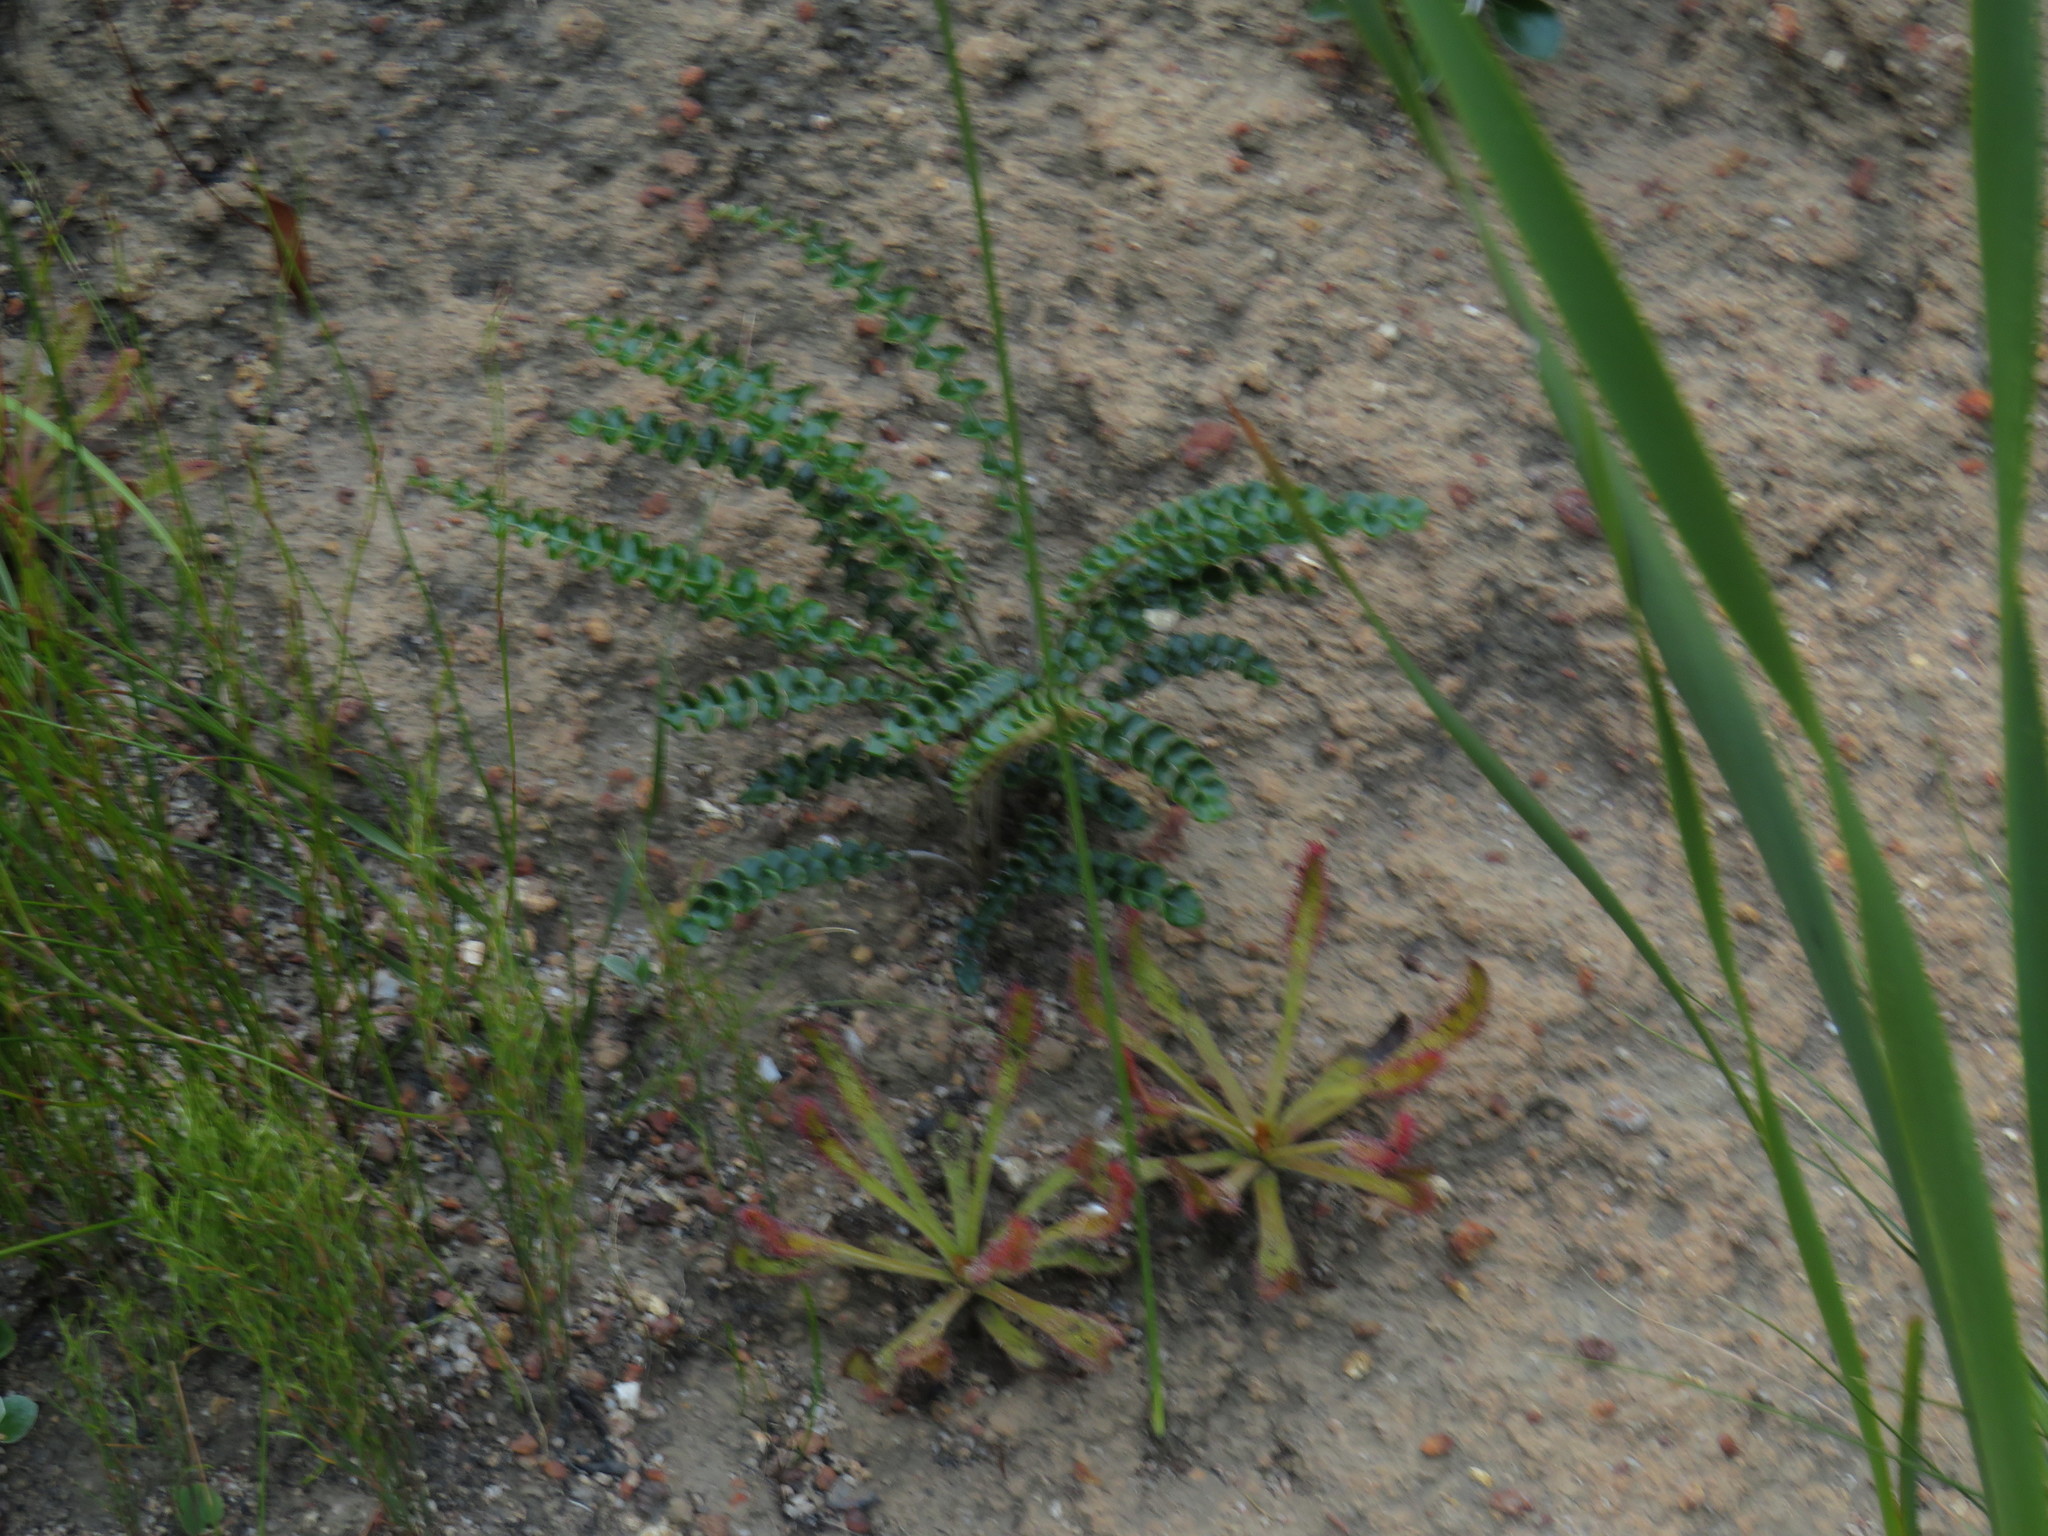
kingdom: Plantae
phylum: Tracheophyta
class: Magnoliopsida
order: Asterales
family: Asteraceae
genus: Gerbera
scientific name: Gerbera linnaei
